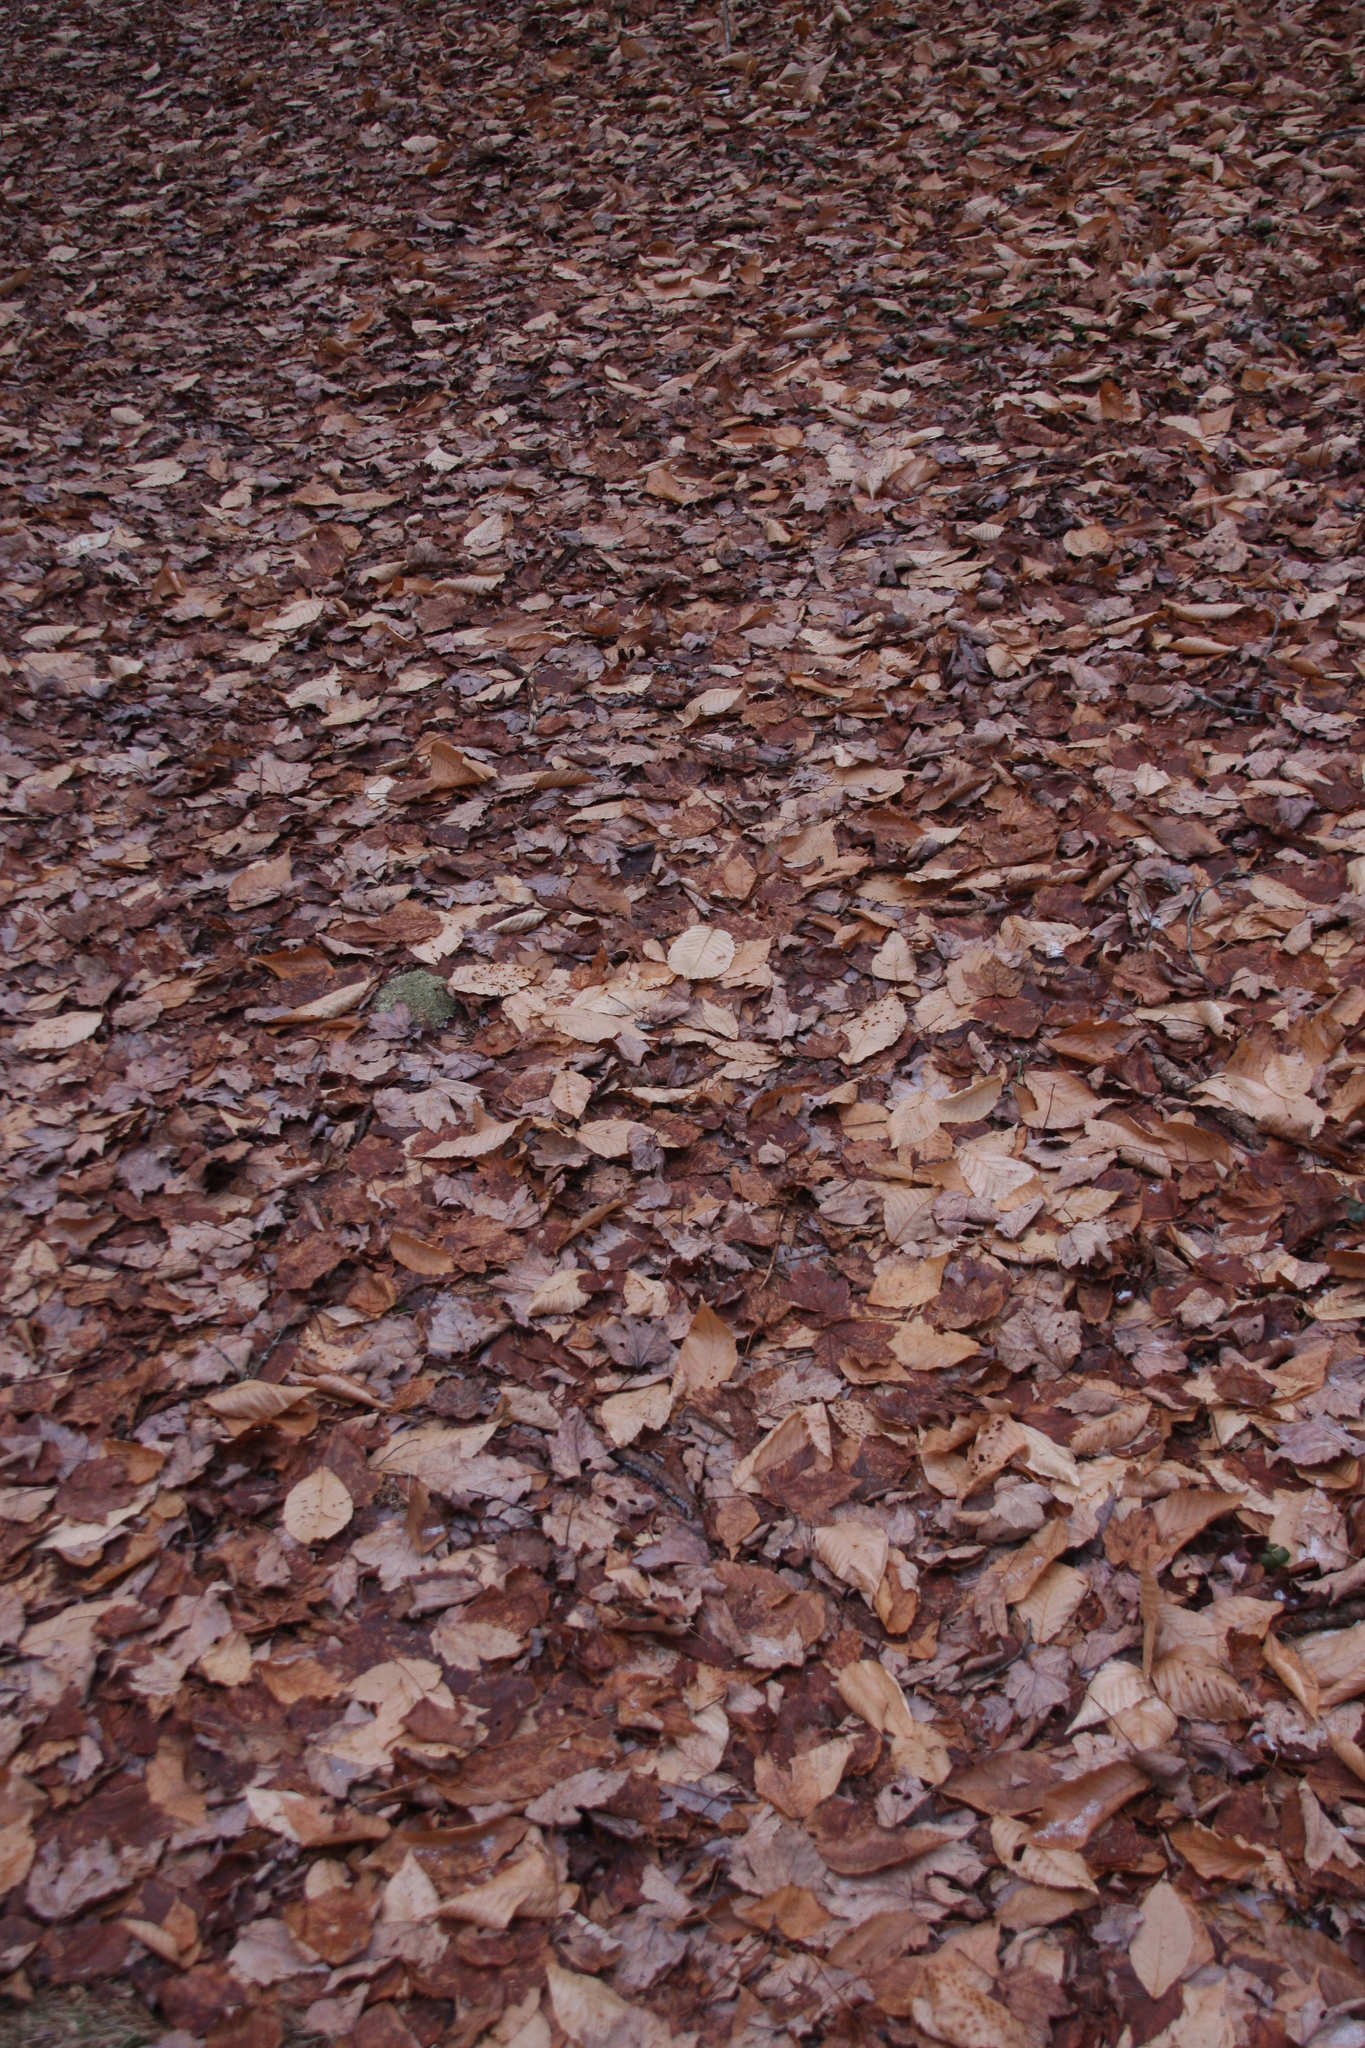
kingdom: Plantae
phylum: Tracheophyta
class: Magnoliopsida
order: Fagales
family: Fagaceae
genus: Fagus
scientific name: Fagus grandifolia
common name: American beech
